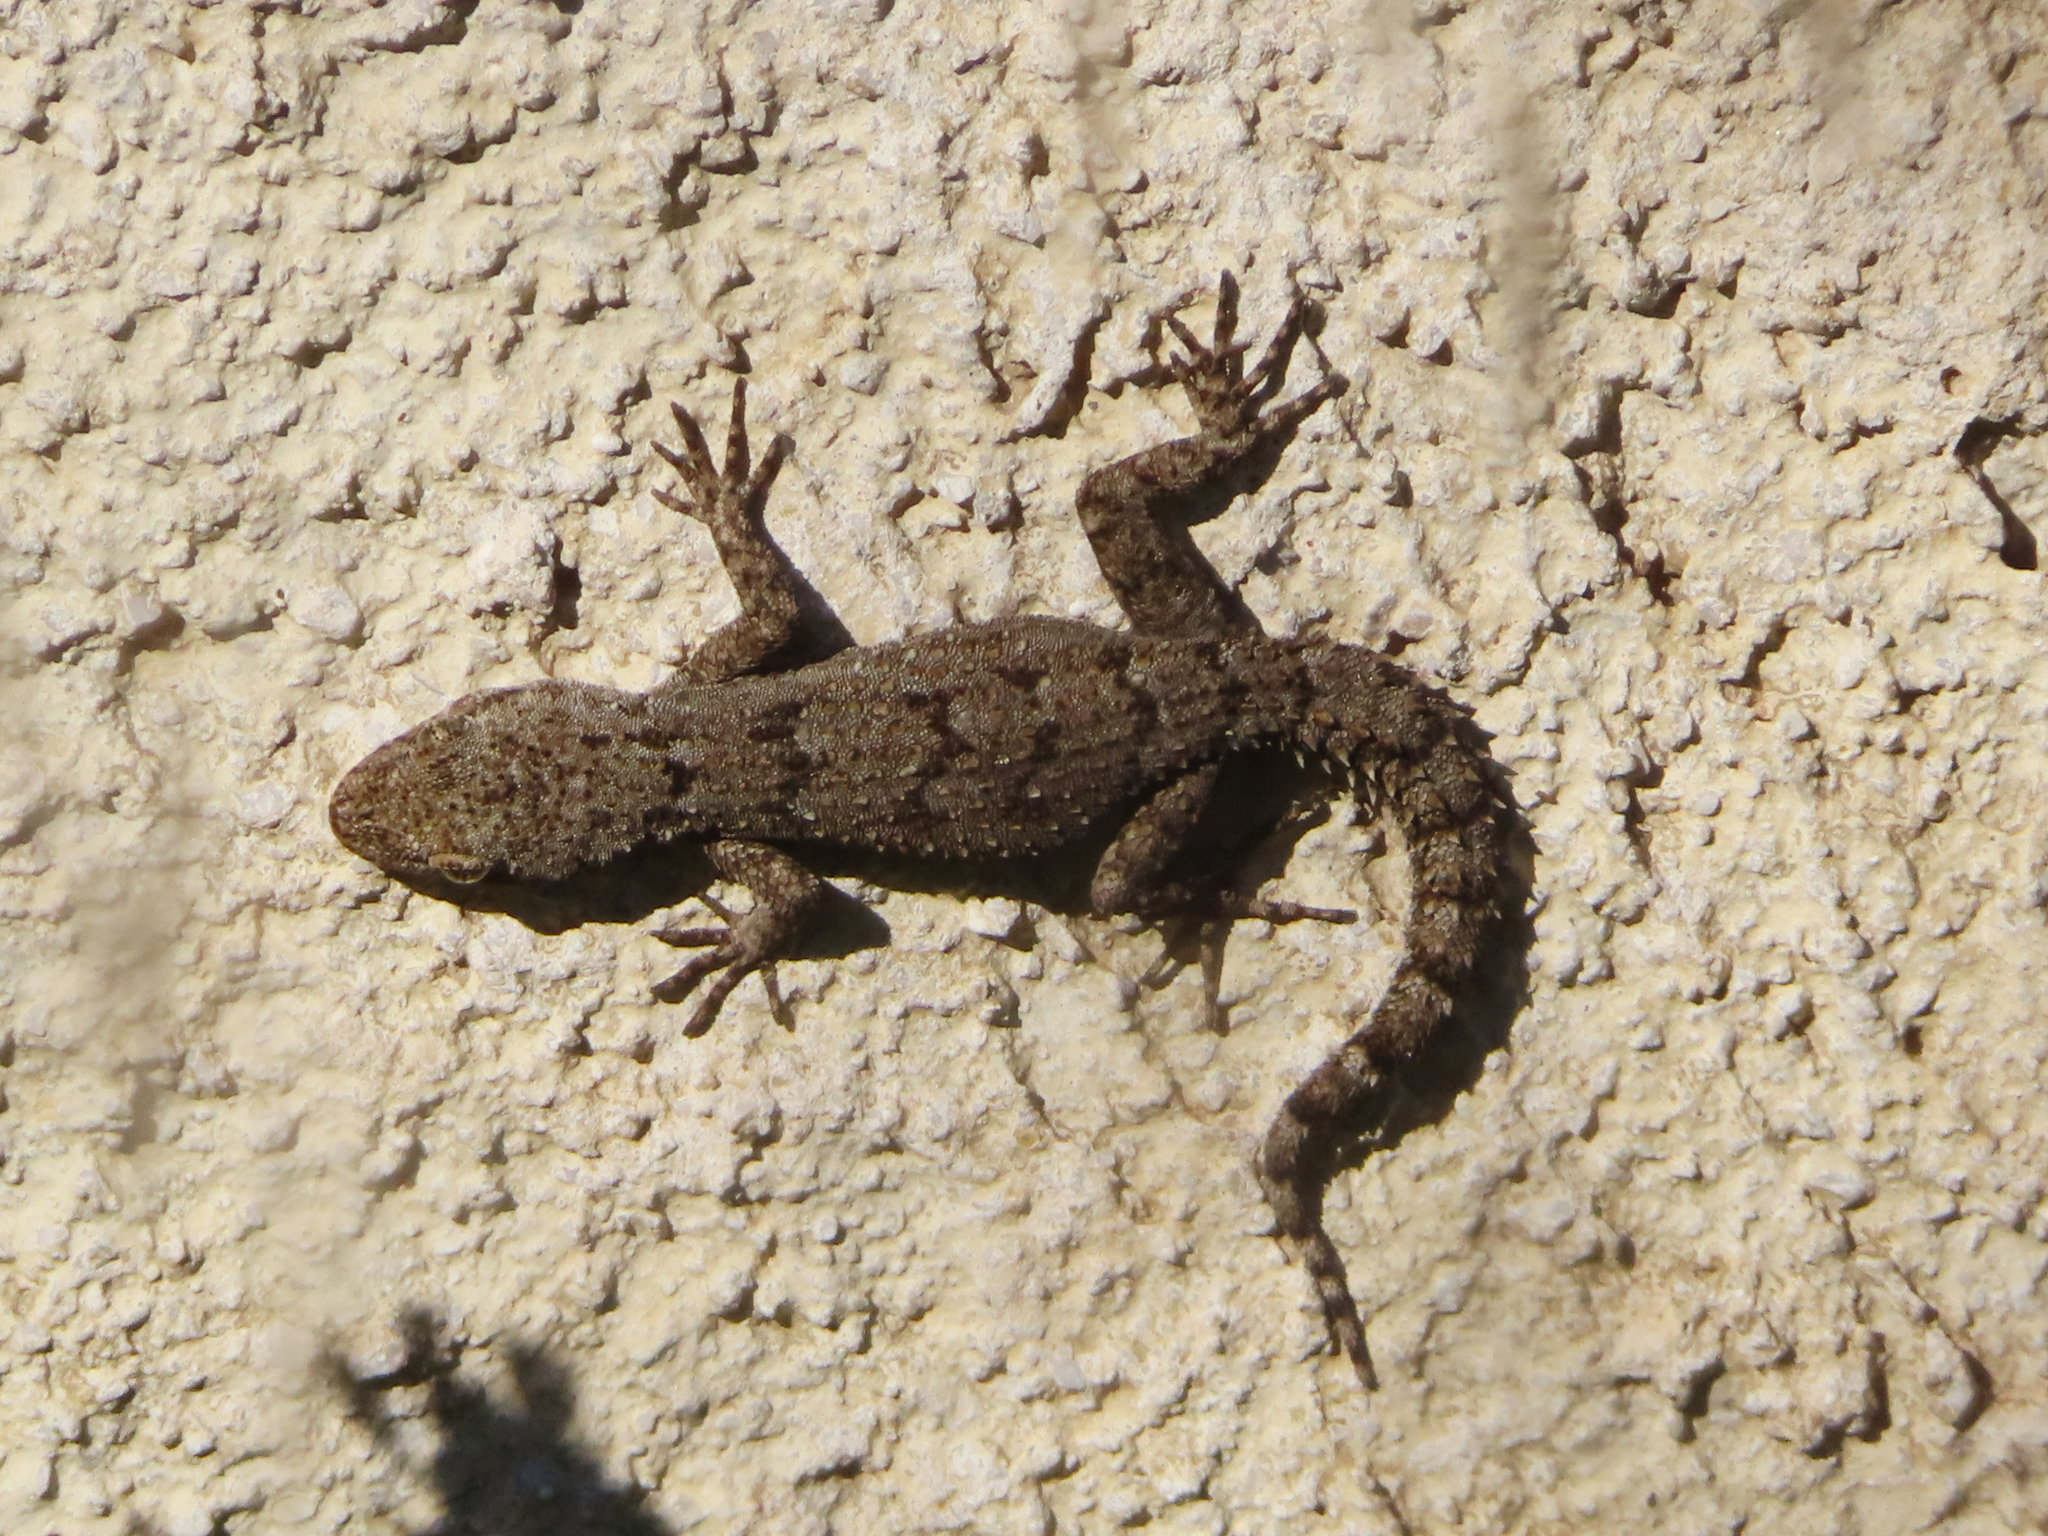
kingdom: Animalia
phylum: Chordata
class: Squamata
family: Gekkonidae
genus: Mediodactylus
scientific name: Mediodactylus kotschyi
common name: Kotschy's gecko
